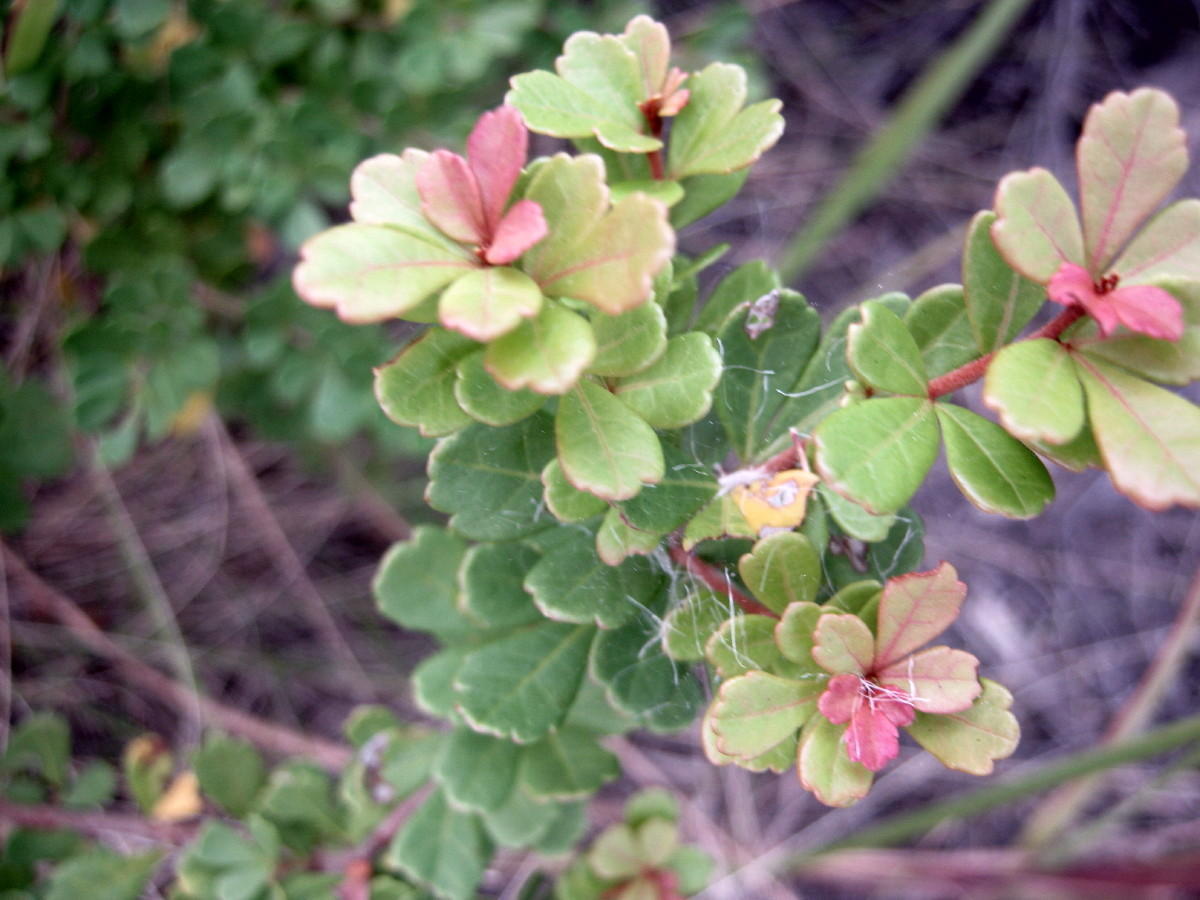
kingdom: Plantae
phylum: Tracheophyta
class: Magnoliopsida
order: Sapindales
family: Anacardiaceae
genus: Searsia
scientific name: Searsia crenata
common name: Crowberry
